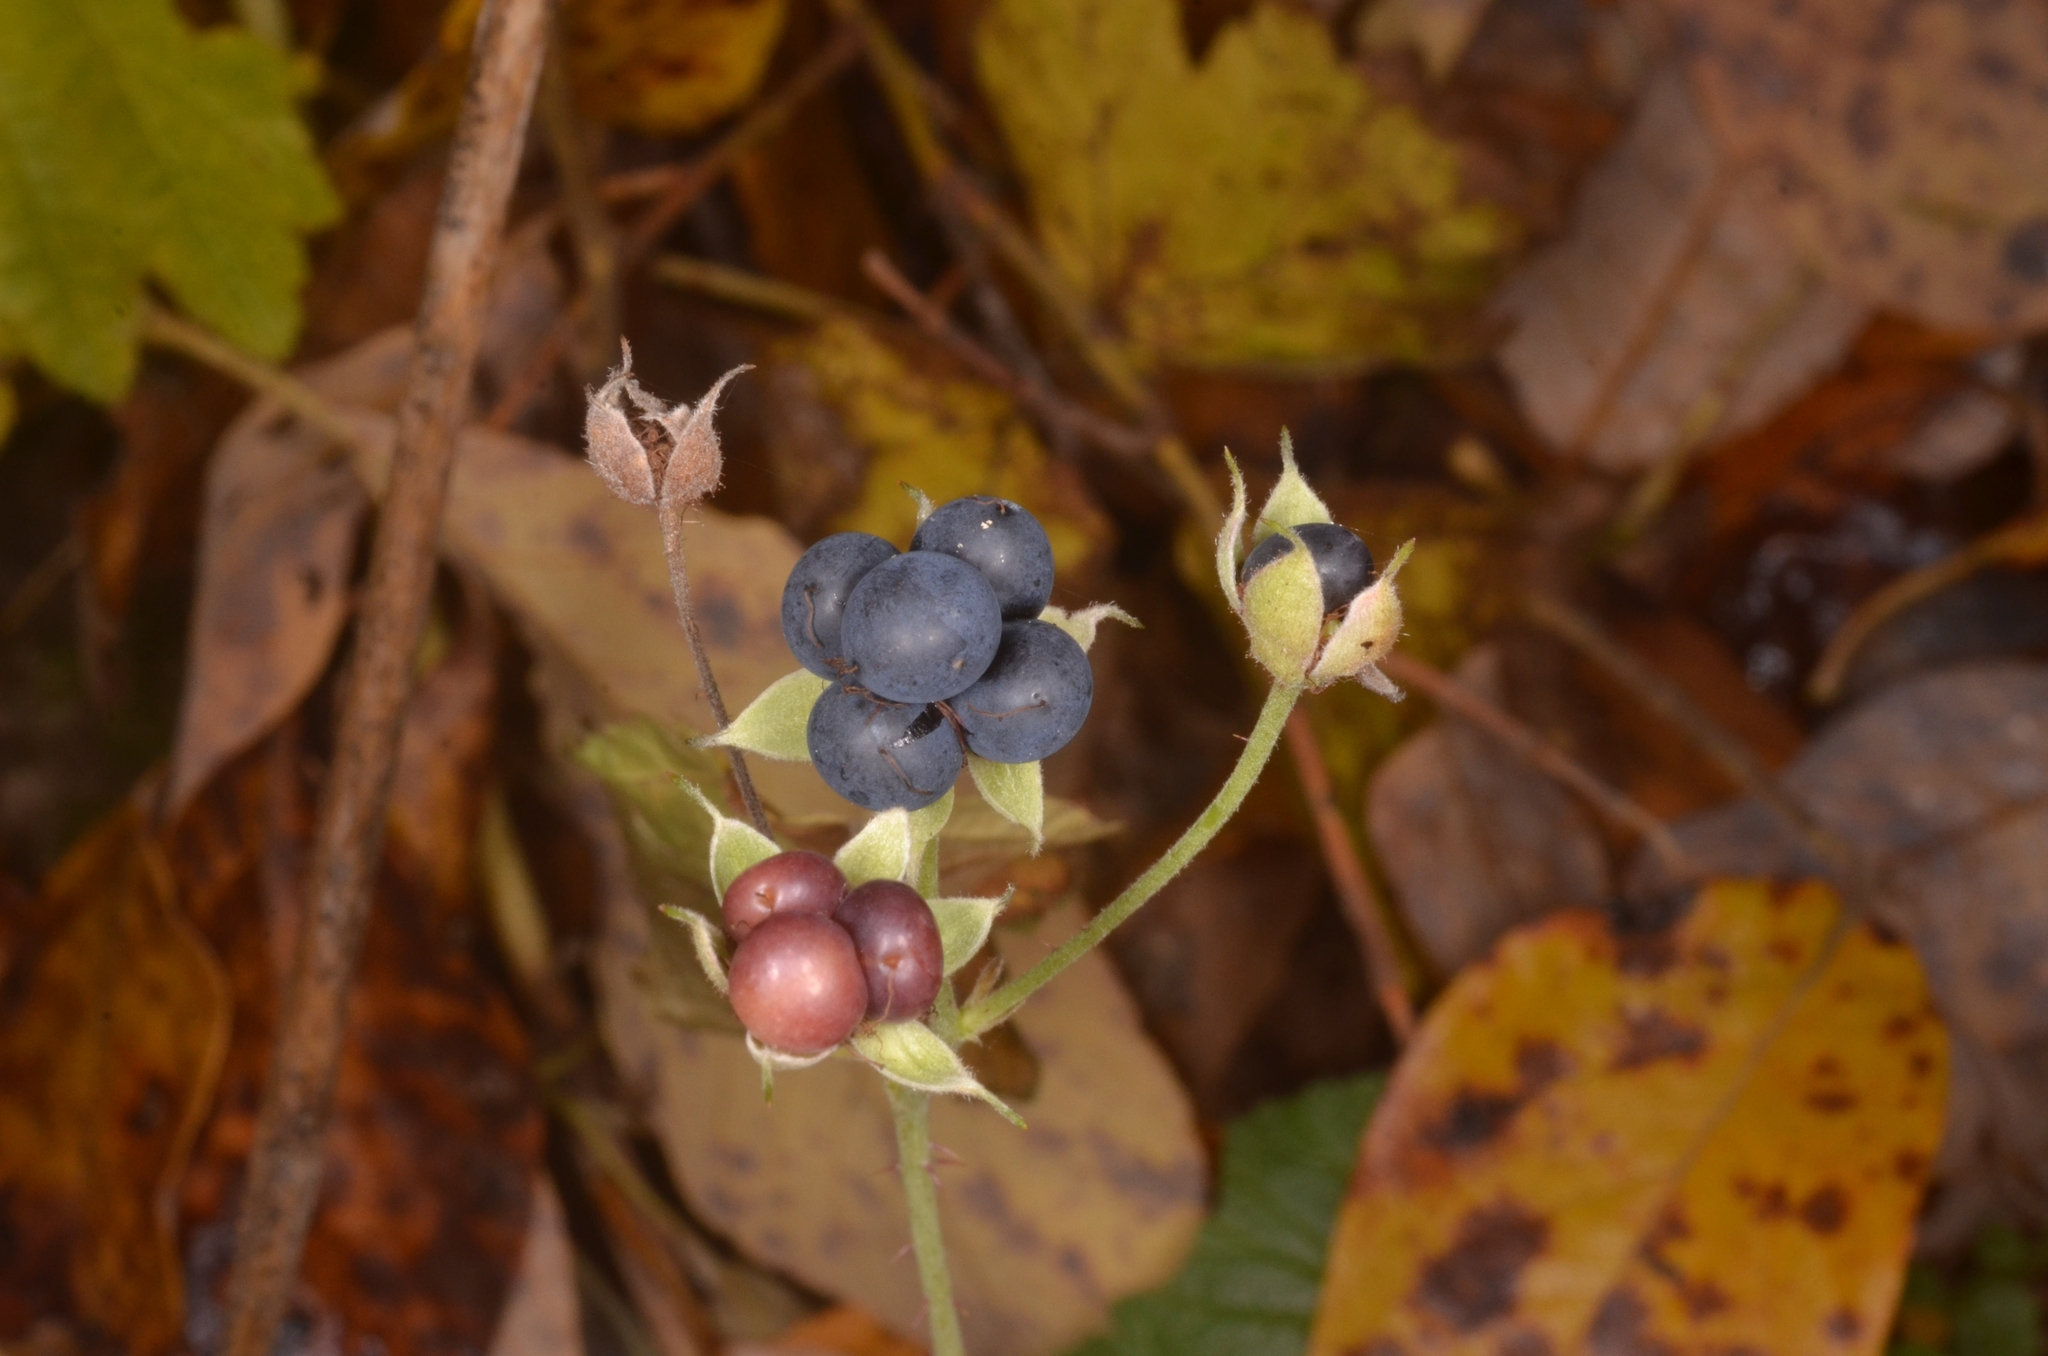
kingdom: Plantae
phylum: Tracheophyta
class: Magnoliopsida
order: Rosales
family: Rosaceae
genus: Rubus
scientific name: Rubus caesius
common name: Dewberry
